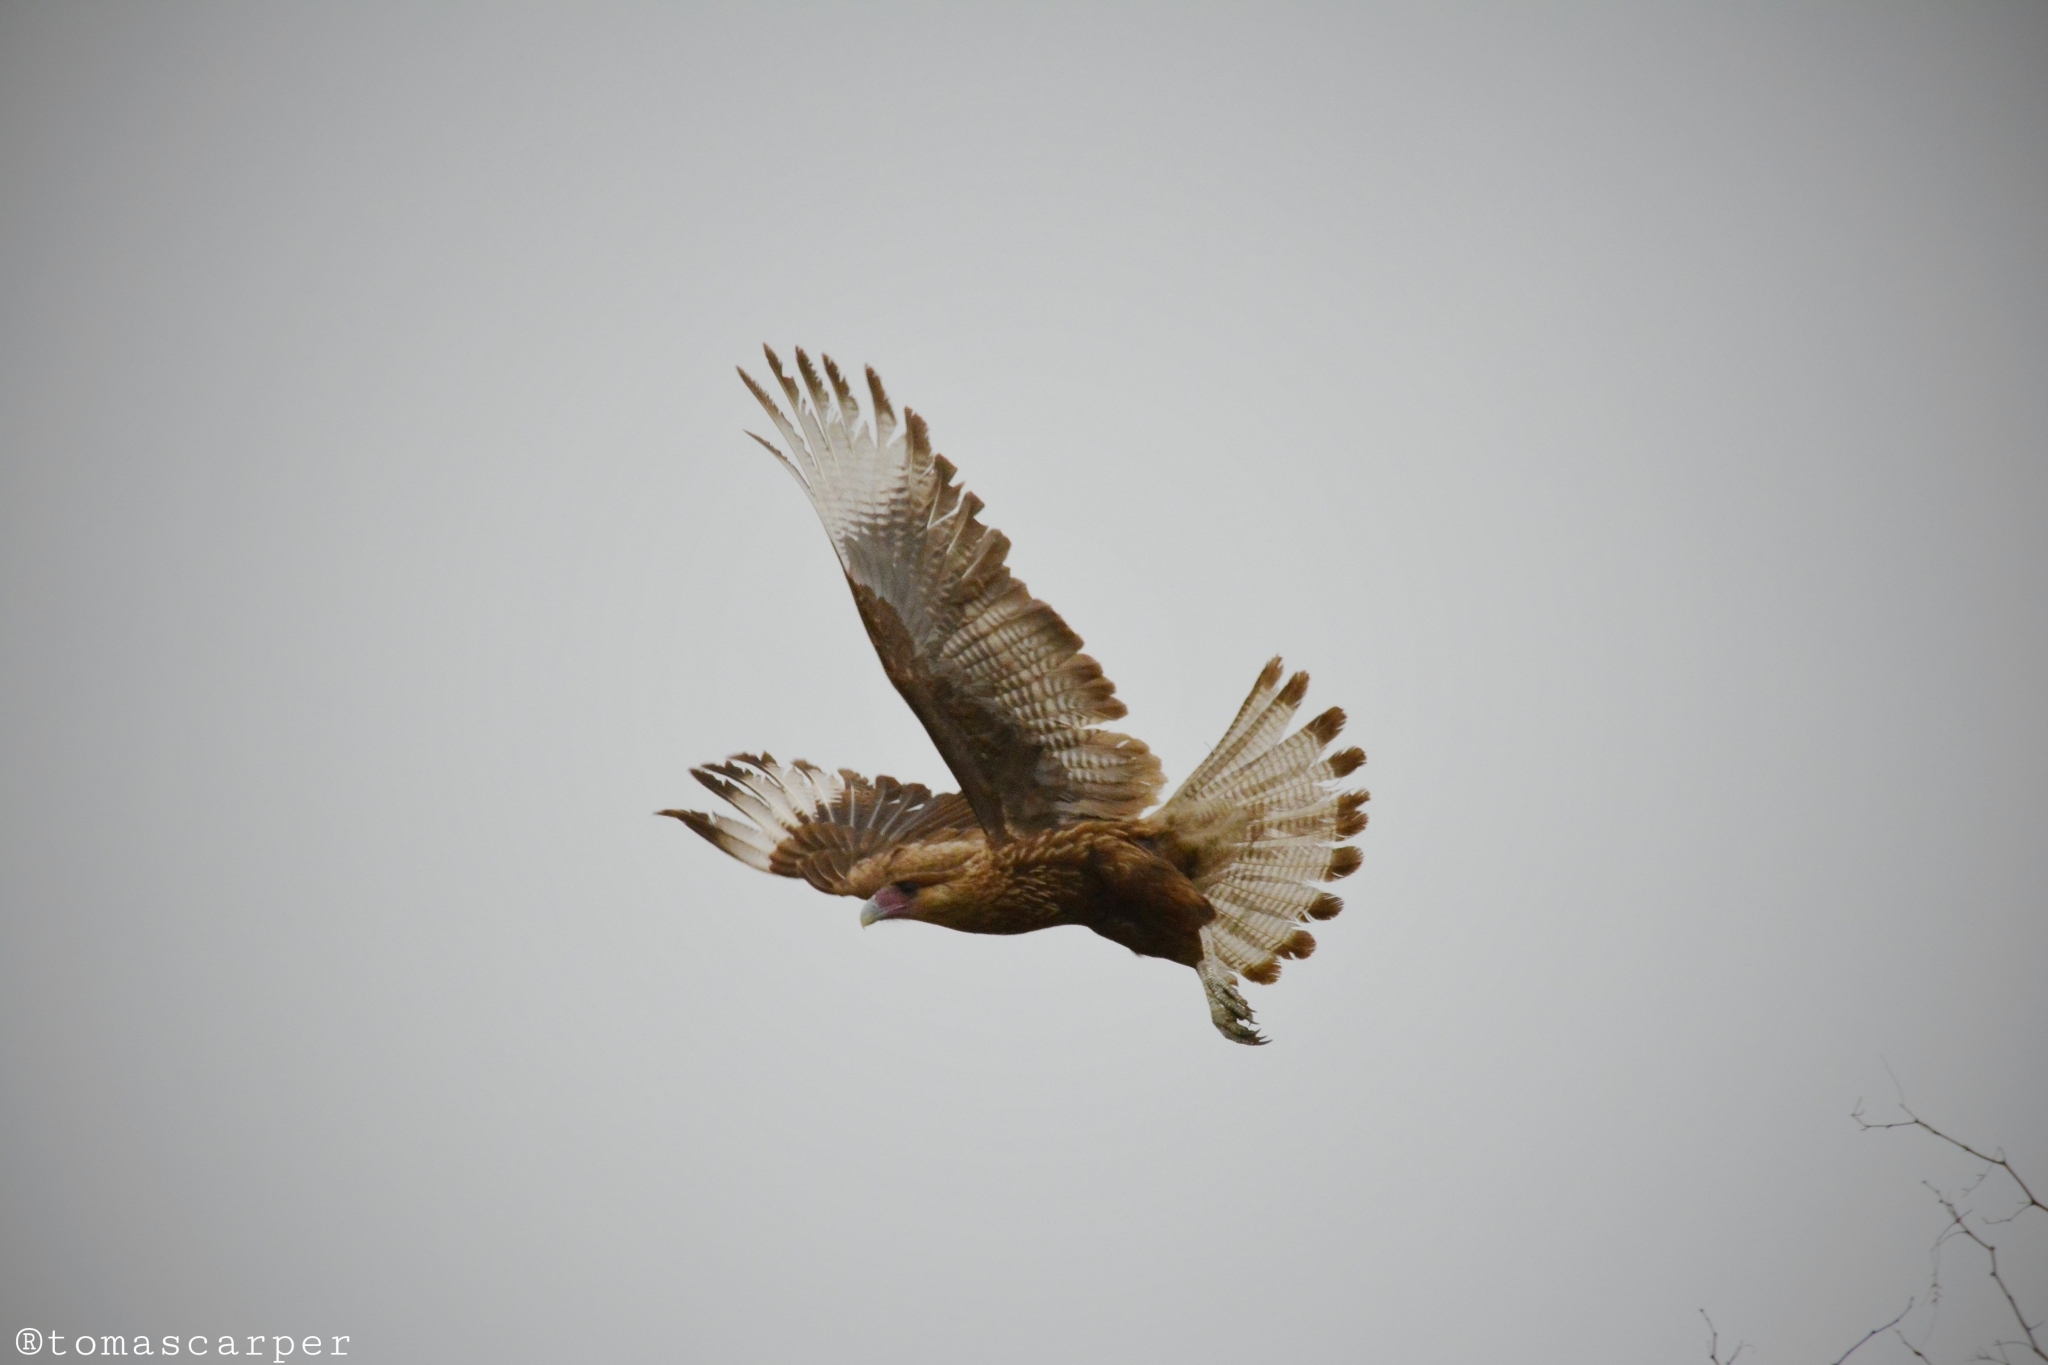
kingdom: Animalia
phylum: Chordata
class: Aves
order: Falconiformes
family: Falconidae
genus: Caracara
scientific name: Caracara plancus
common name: Southern caracara
